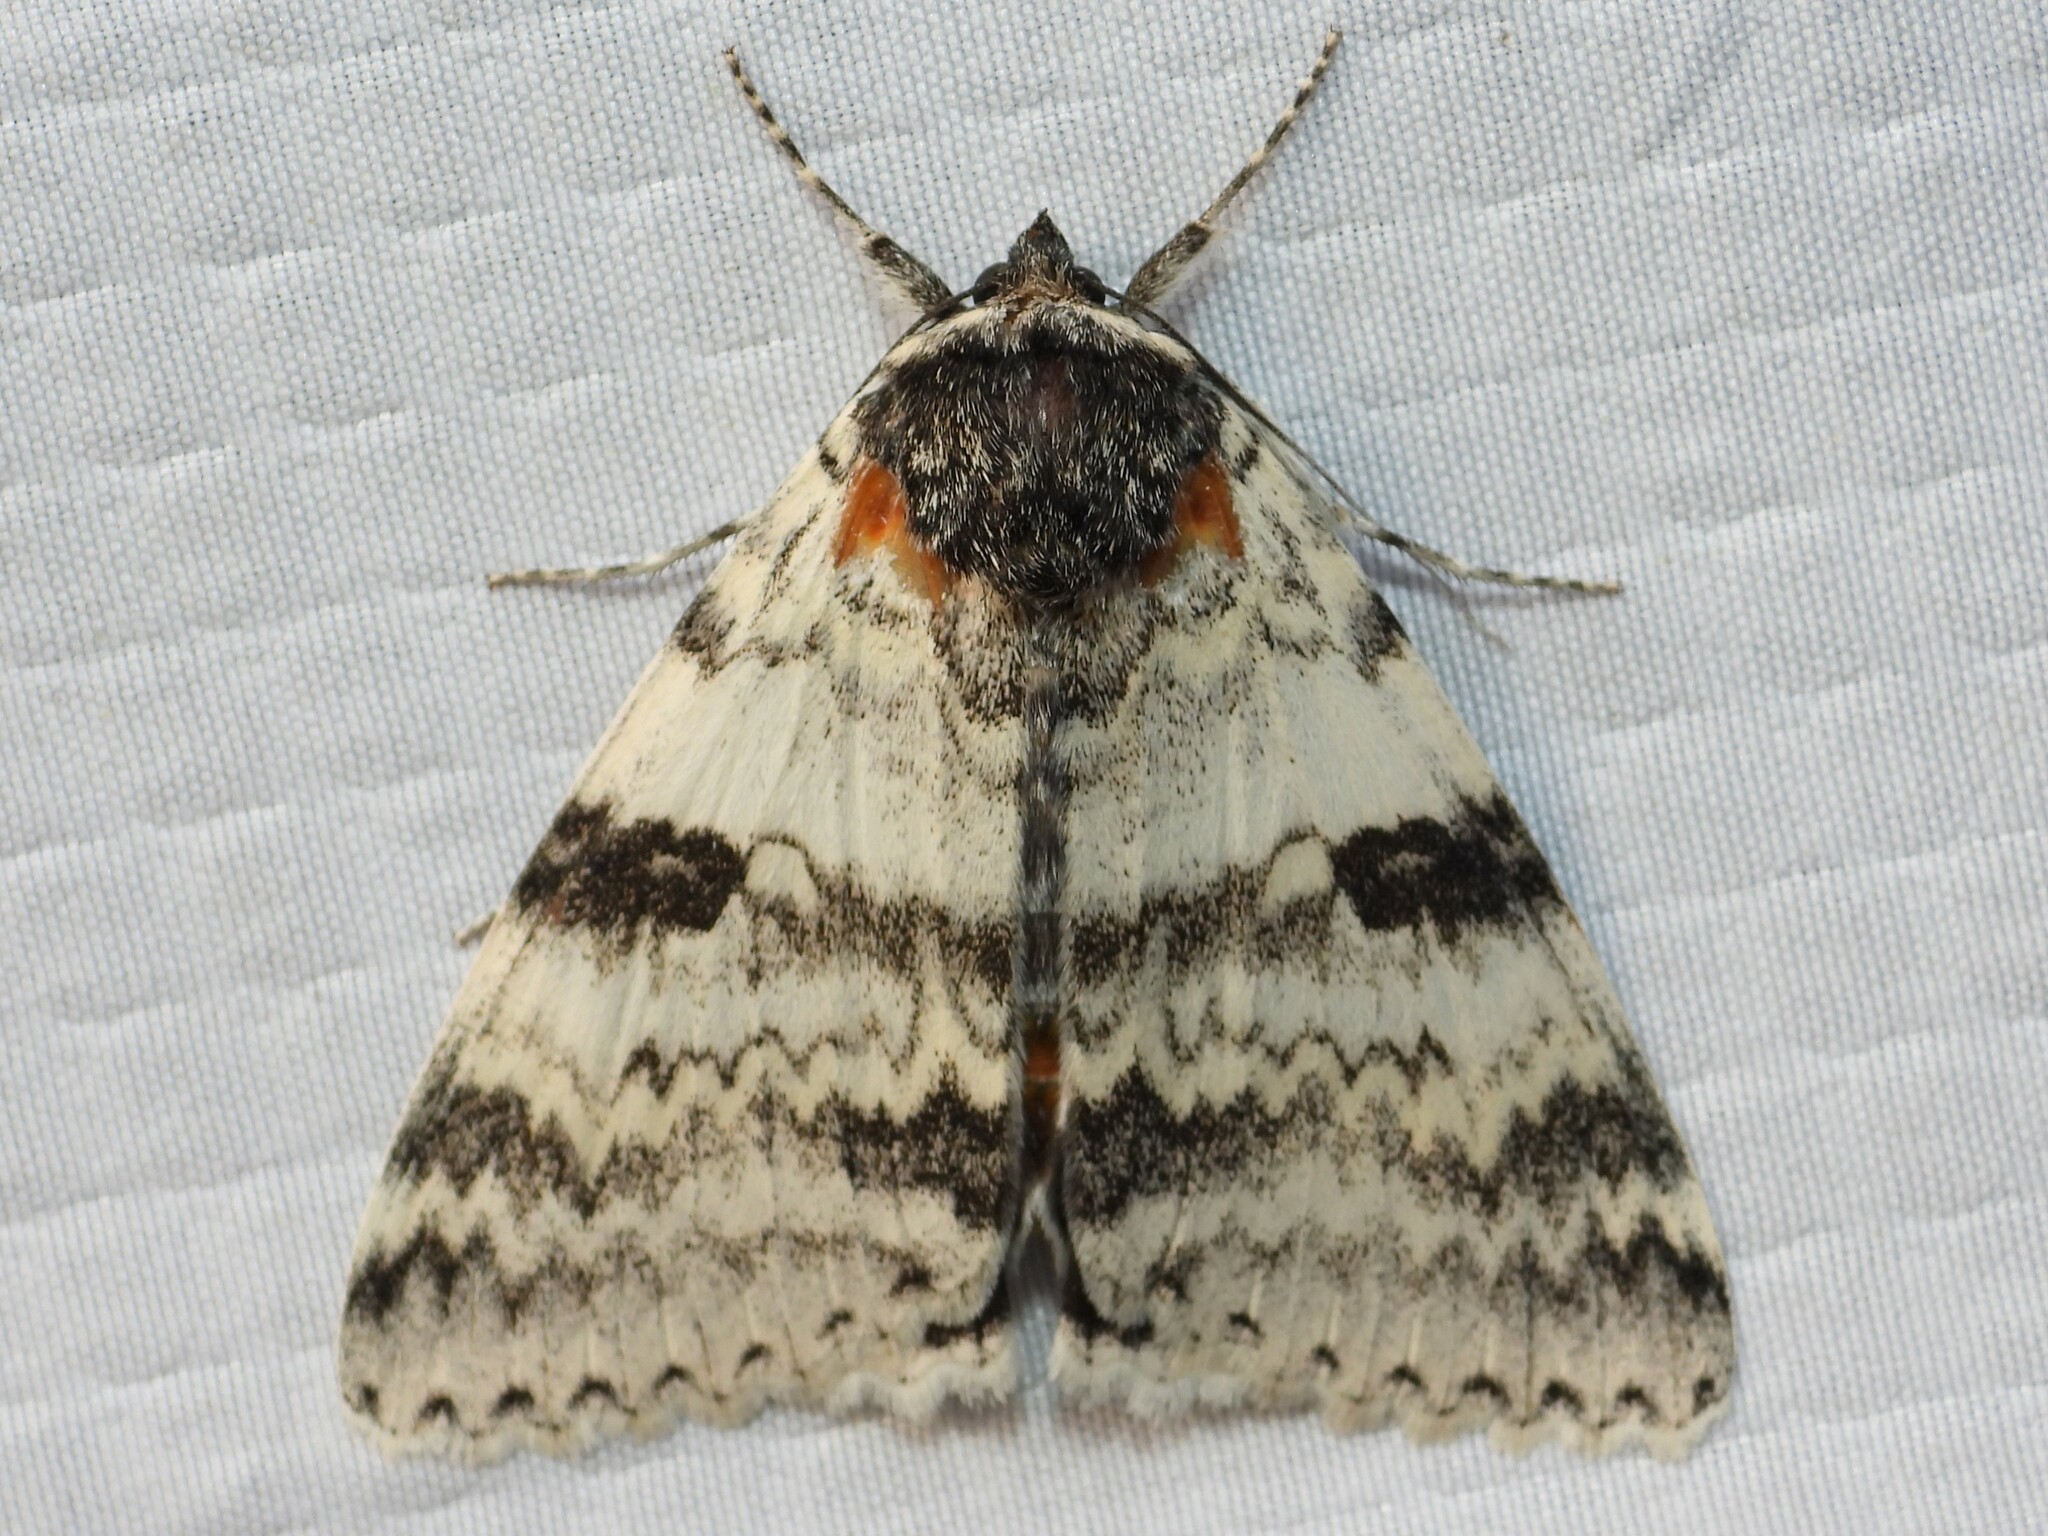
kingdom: Animalia
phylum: Arthropoda
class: Insecta
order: Lepidoptera
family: Erebidae
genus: Catocala
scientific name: Catocala relicta
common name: White underwing
